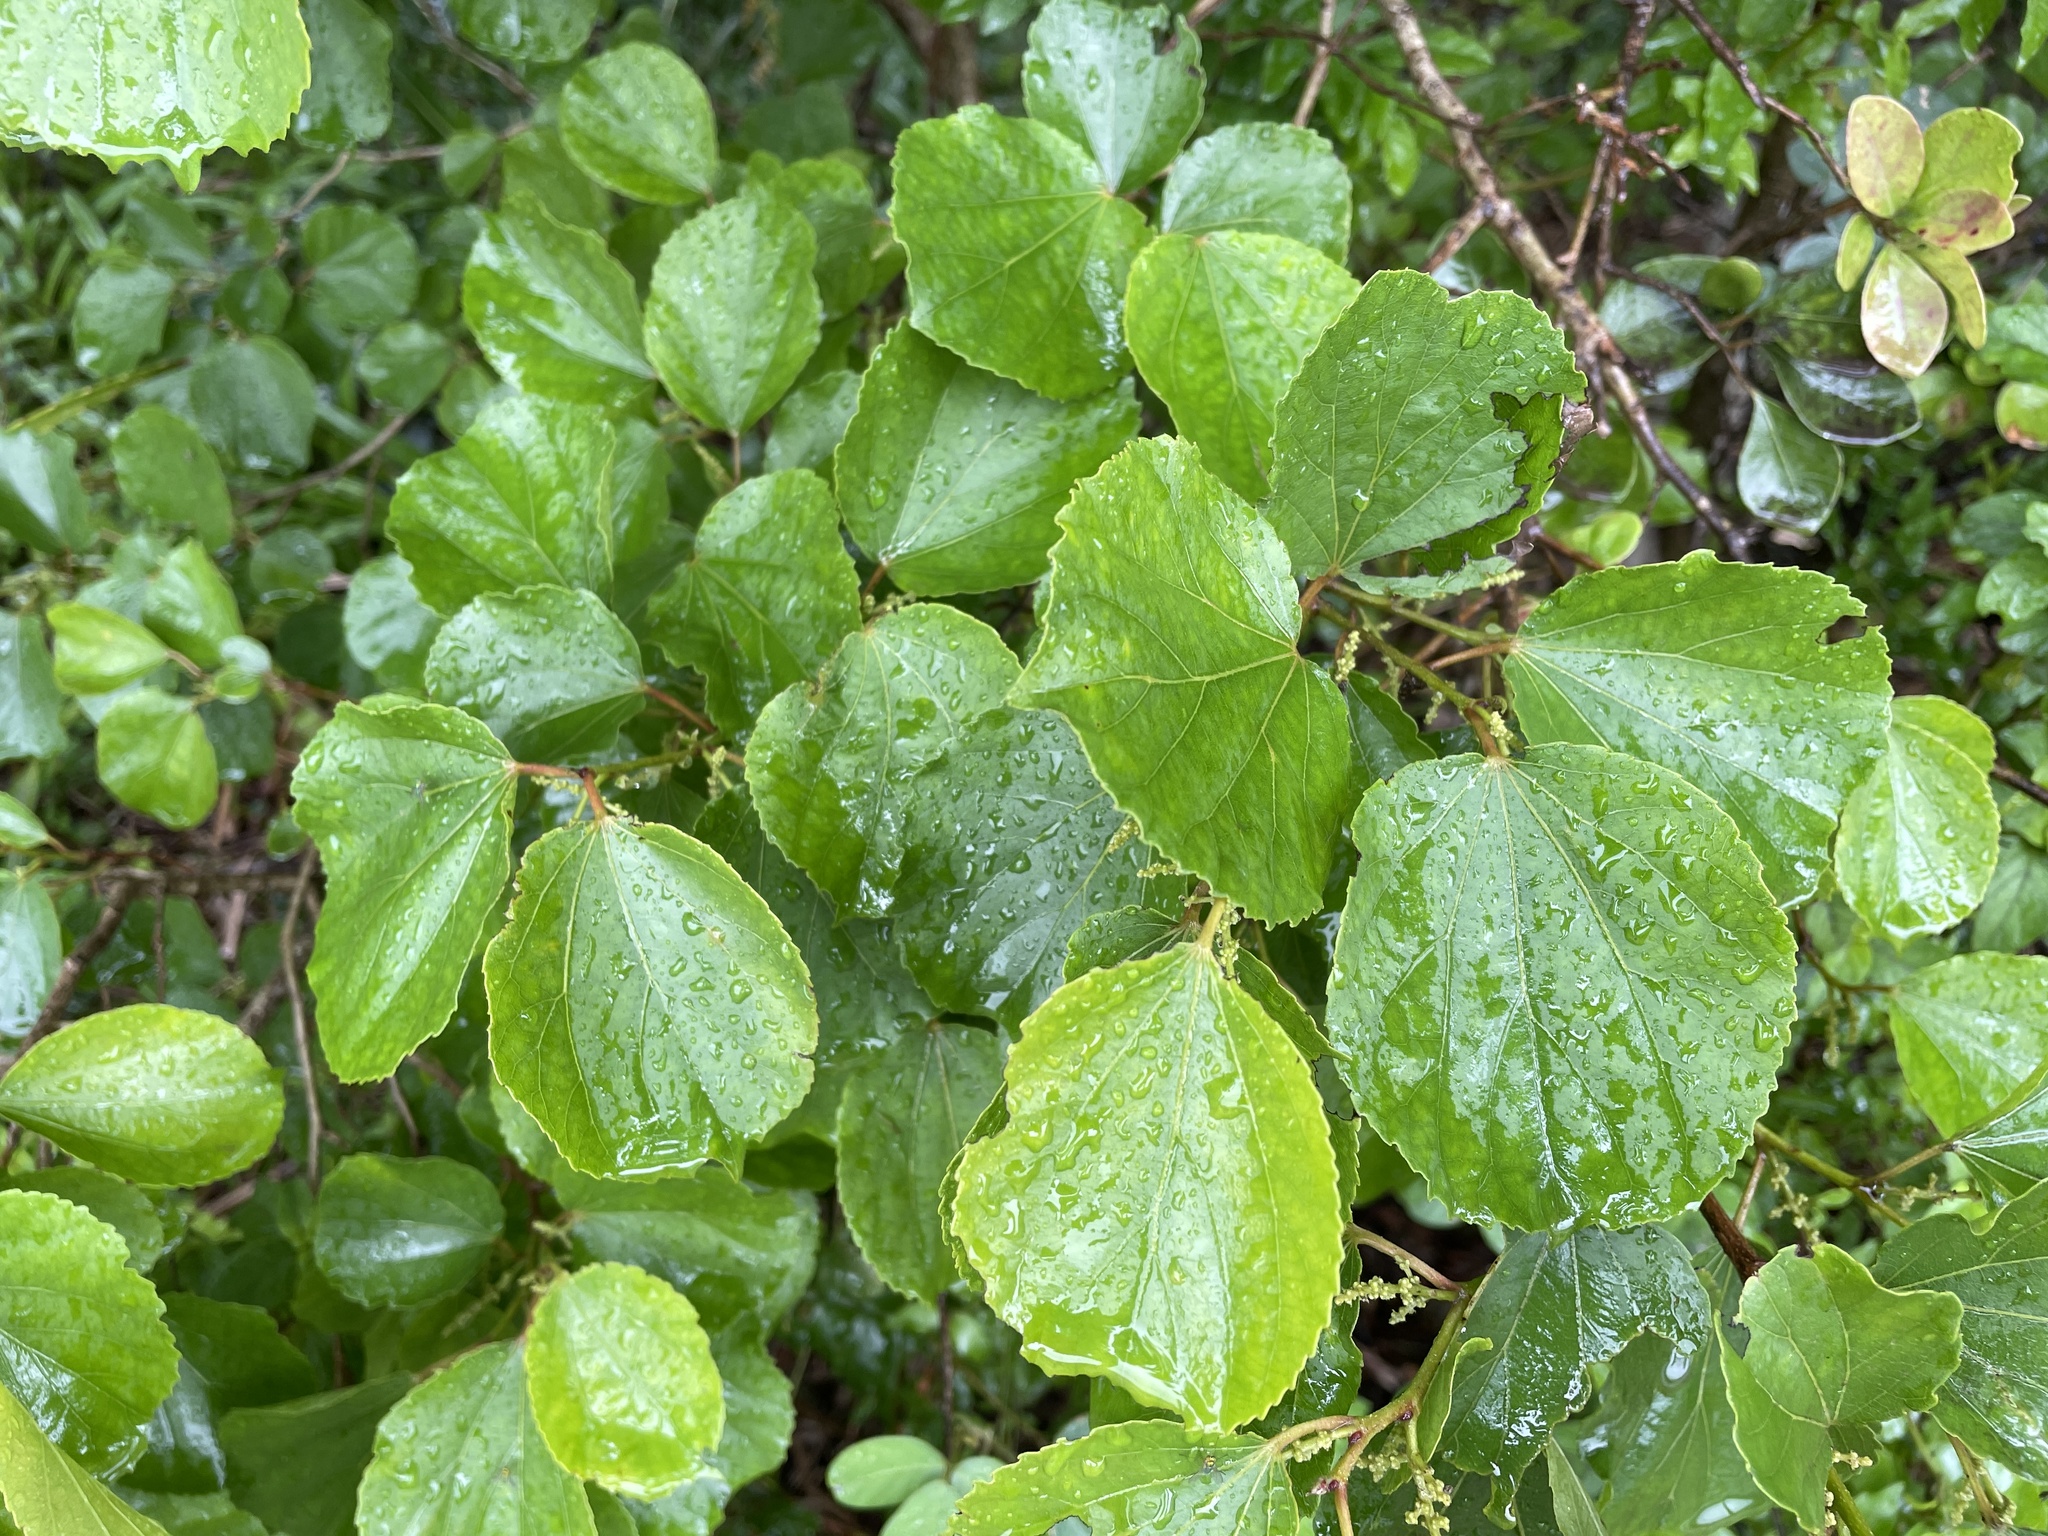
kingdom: Plantae
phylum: Tracheophyta
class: Magnoliopsida
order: Malpighiales
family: Salicaceae
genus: Trimeria
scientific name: Trimeria grandifolia
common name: Wild mulberry
